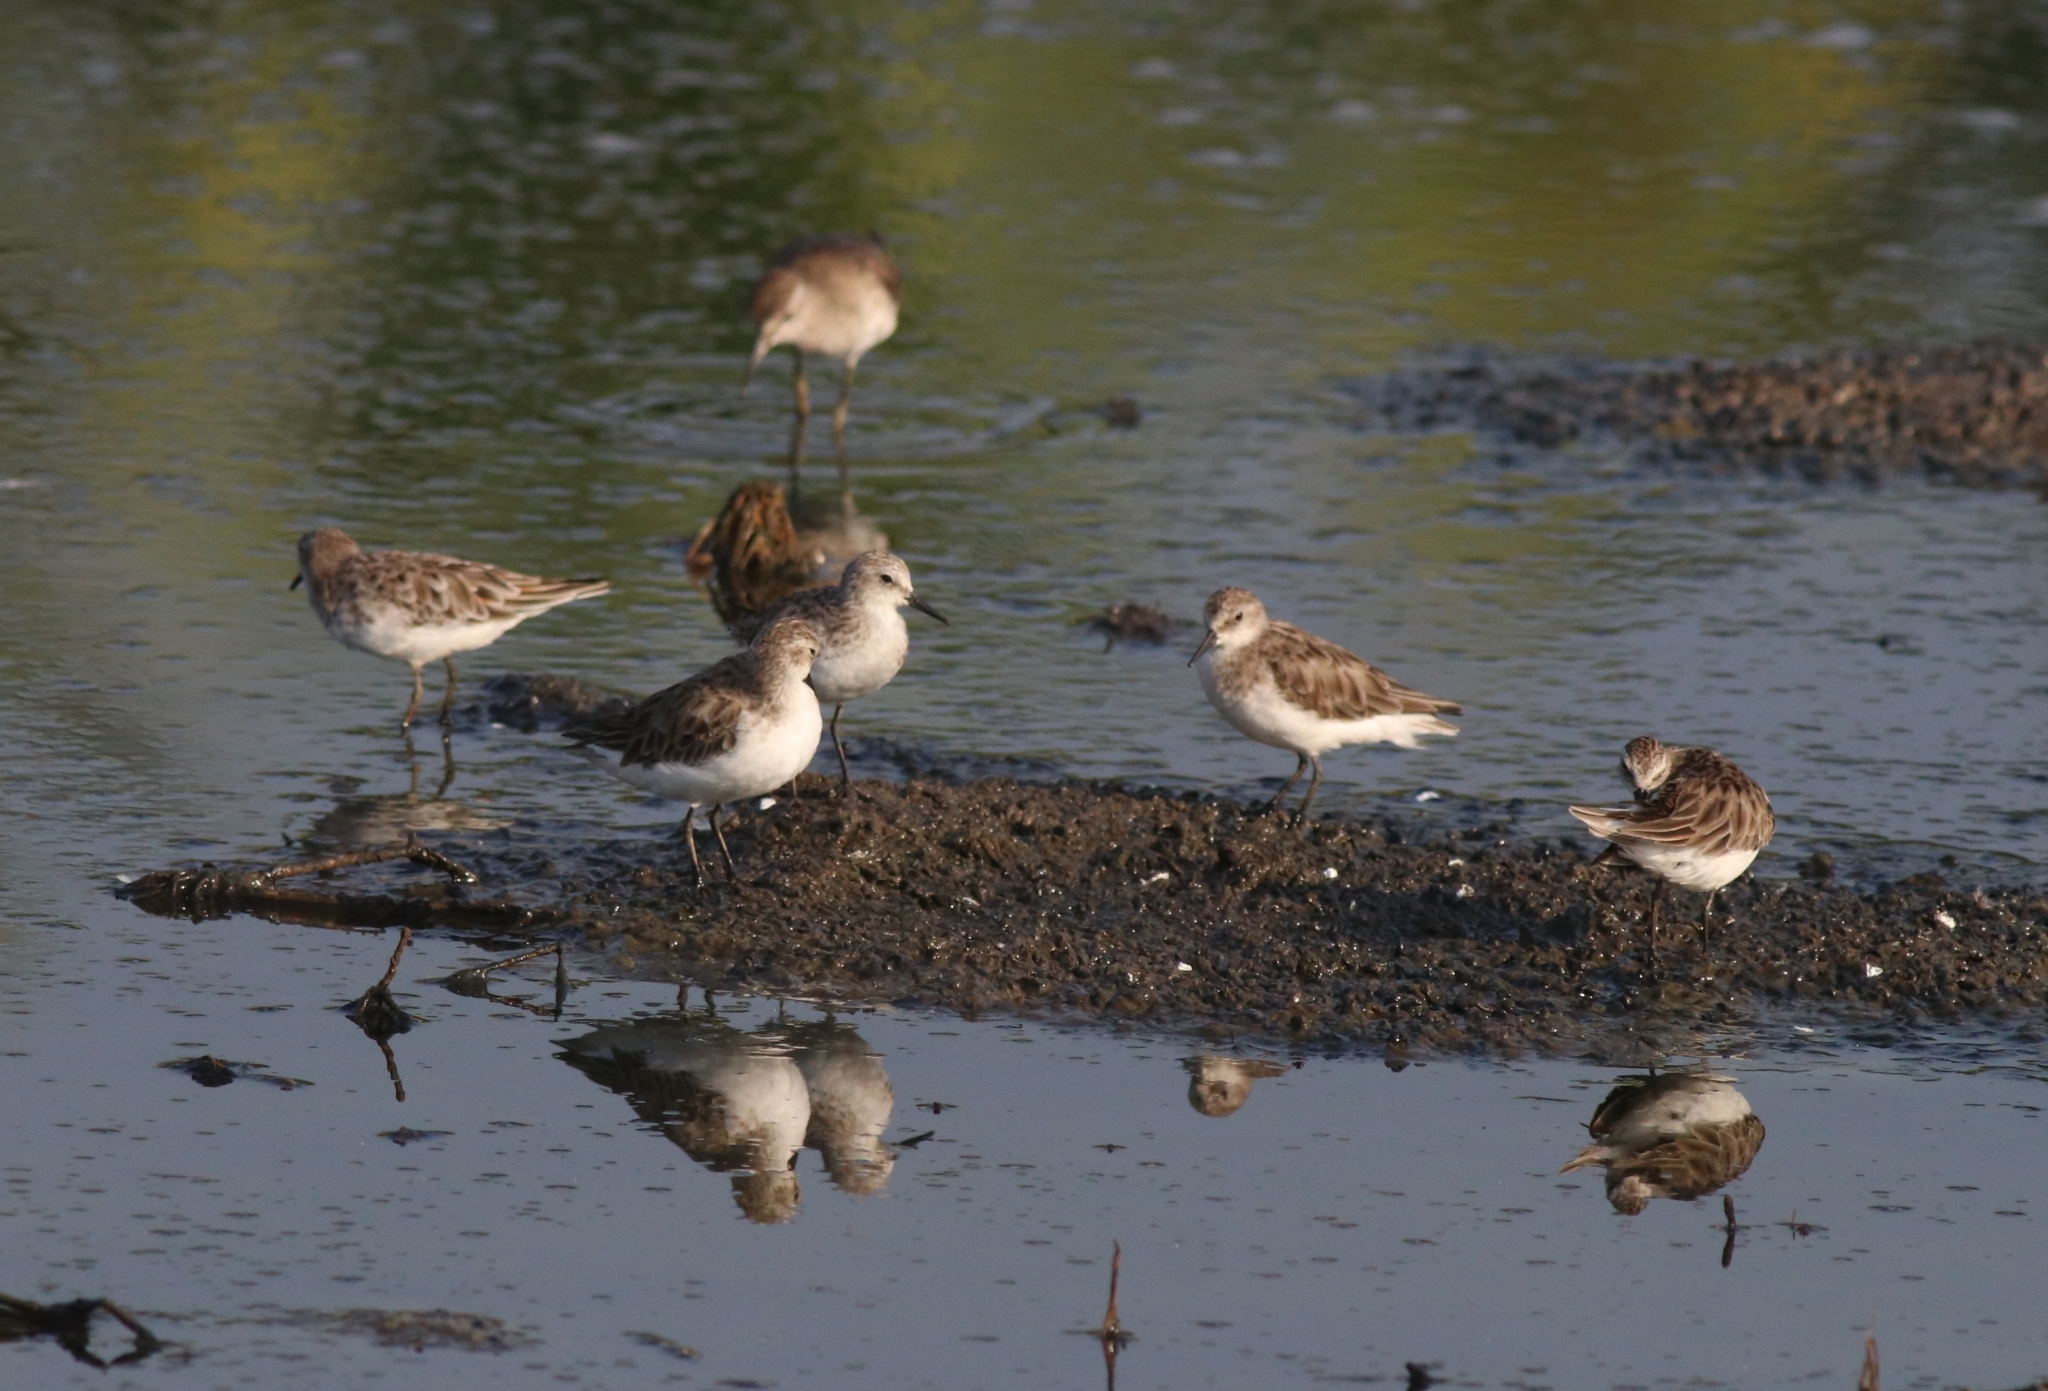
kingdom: Animalia
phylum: Chordata
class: Aves
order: Charadriiformes
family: Scolopacidae
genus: Calidris
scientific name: Calidris minuta
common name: Little stint
